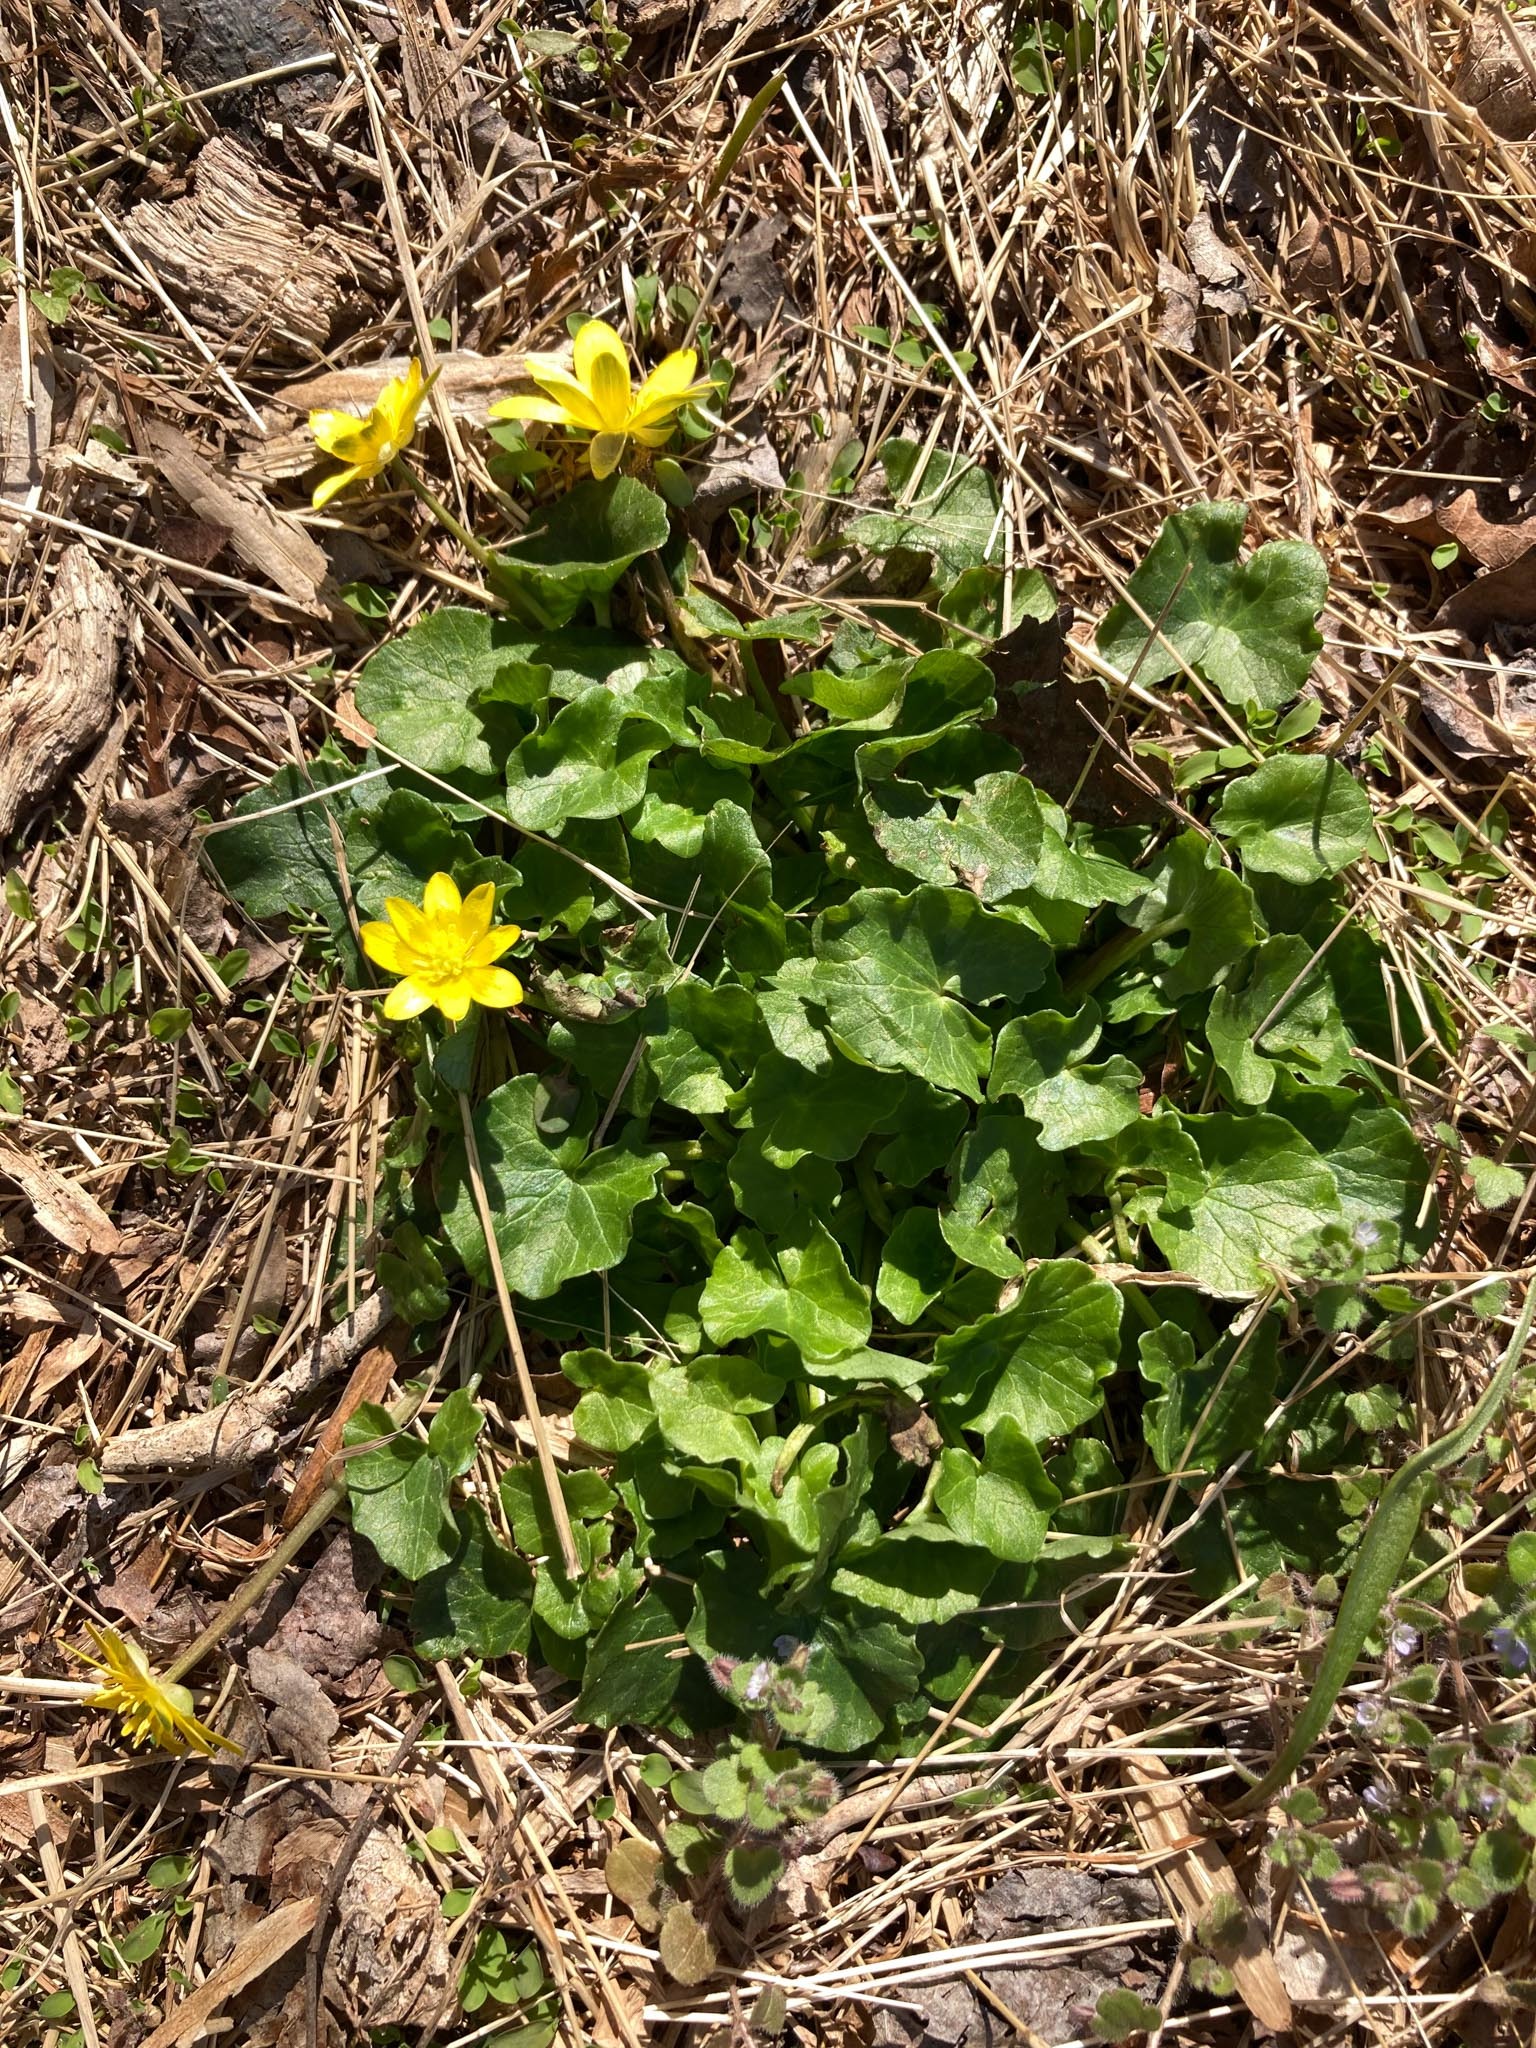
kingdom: Plantae
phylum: Tracheophyta
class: Magnoliopsida
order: Ranunculales
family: Ranunculaceae
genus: Ficaria
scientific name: Ficaria verna
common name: Lesser celandine
